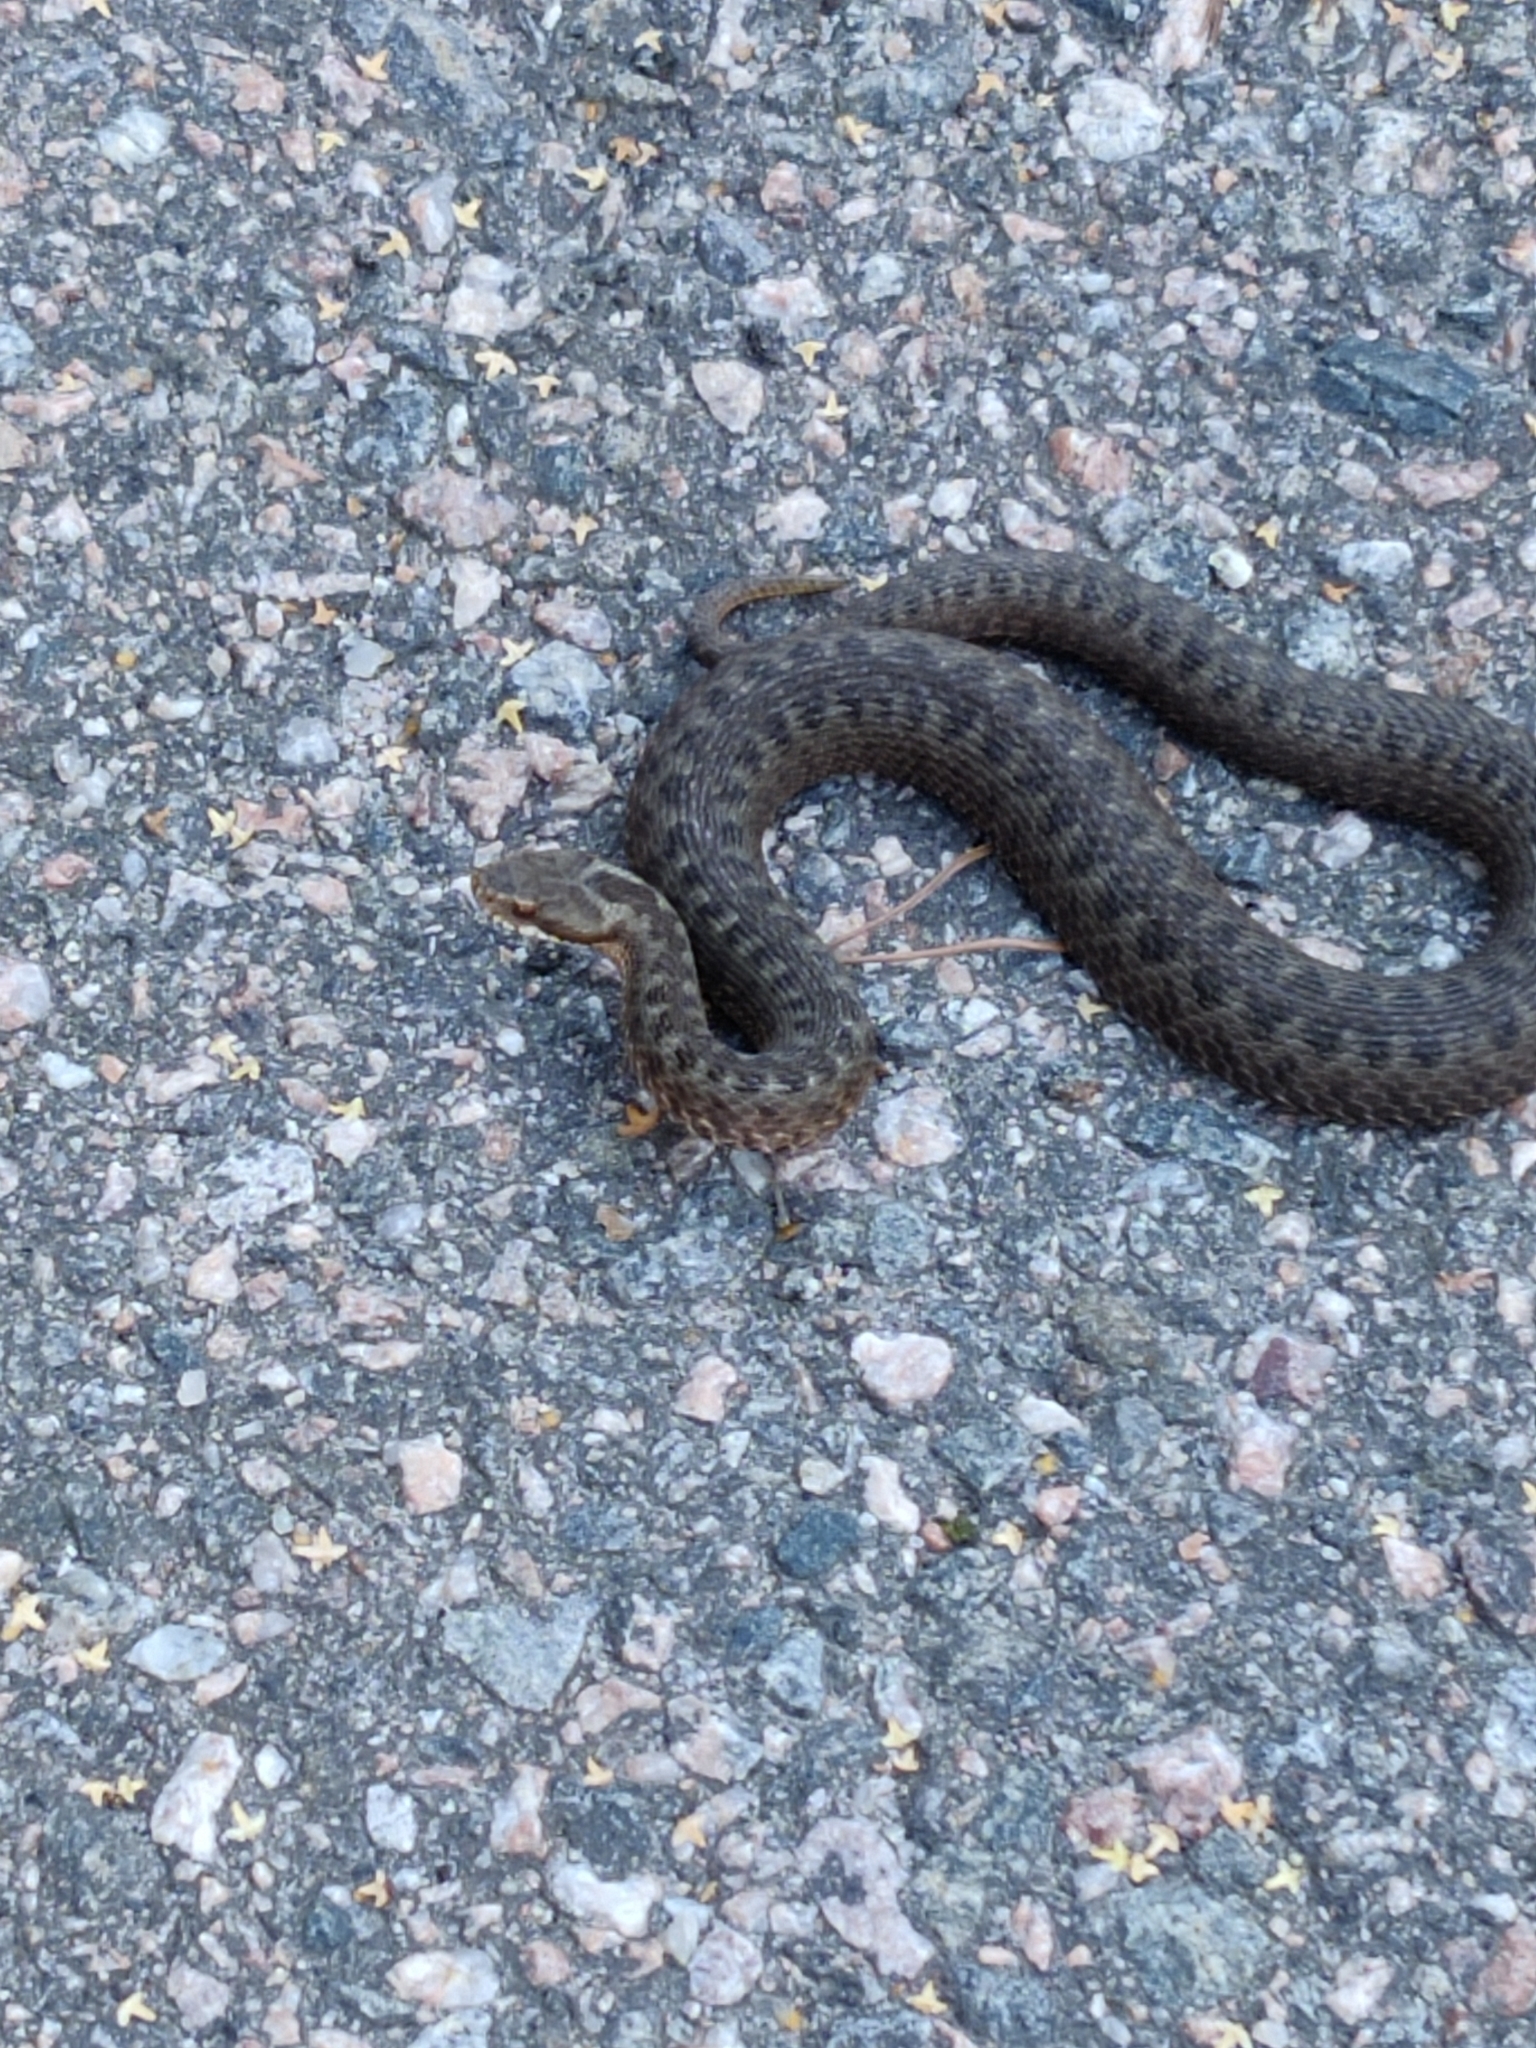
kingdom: Animalia
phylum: Chordata
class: Squamata
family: Viperidae
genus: Vipera
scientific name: Vipera berus
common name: Adder
